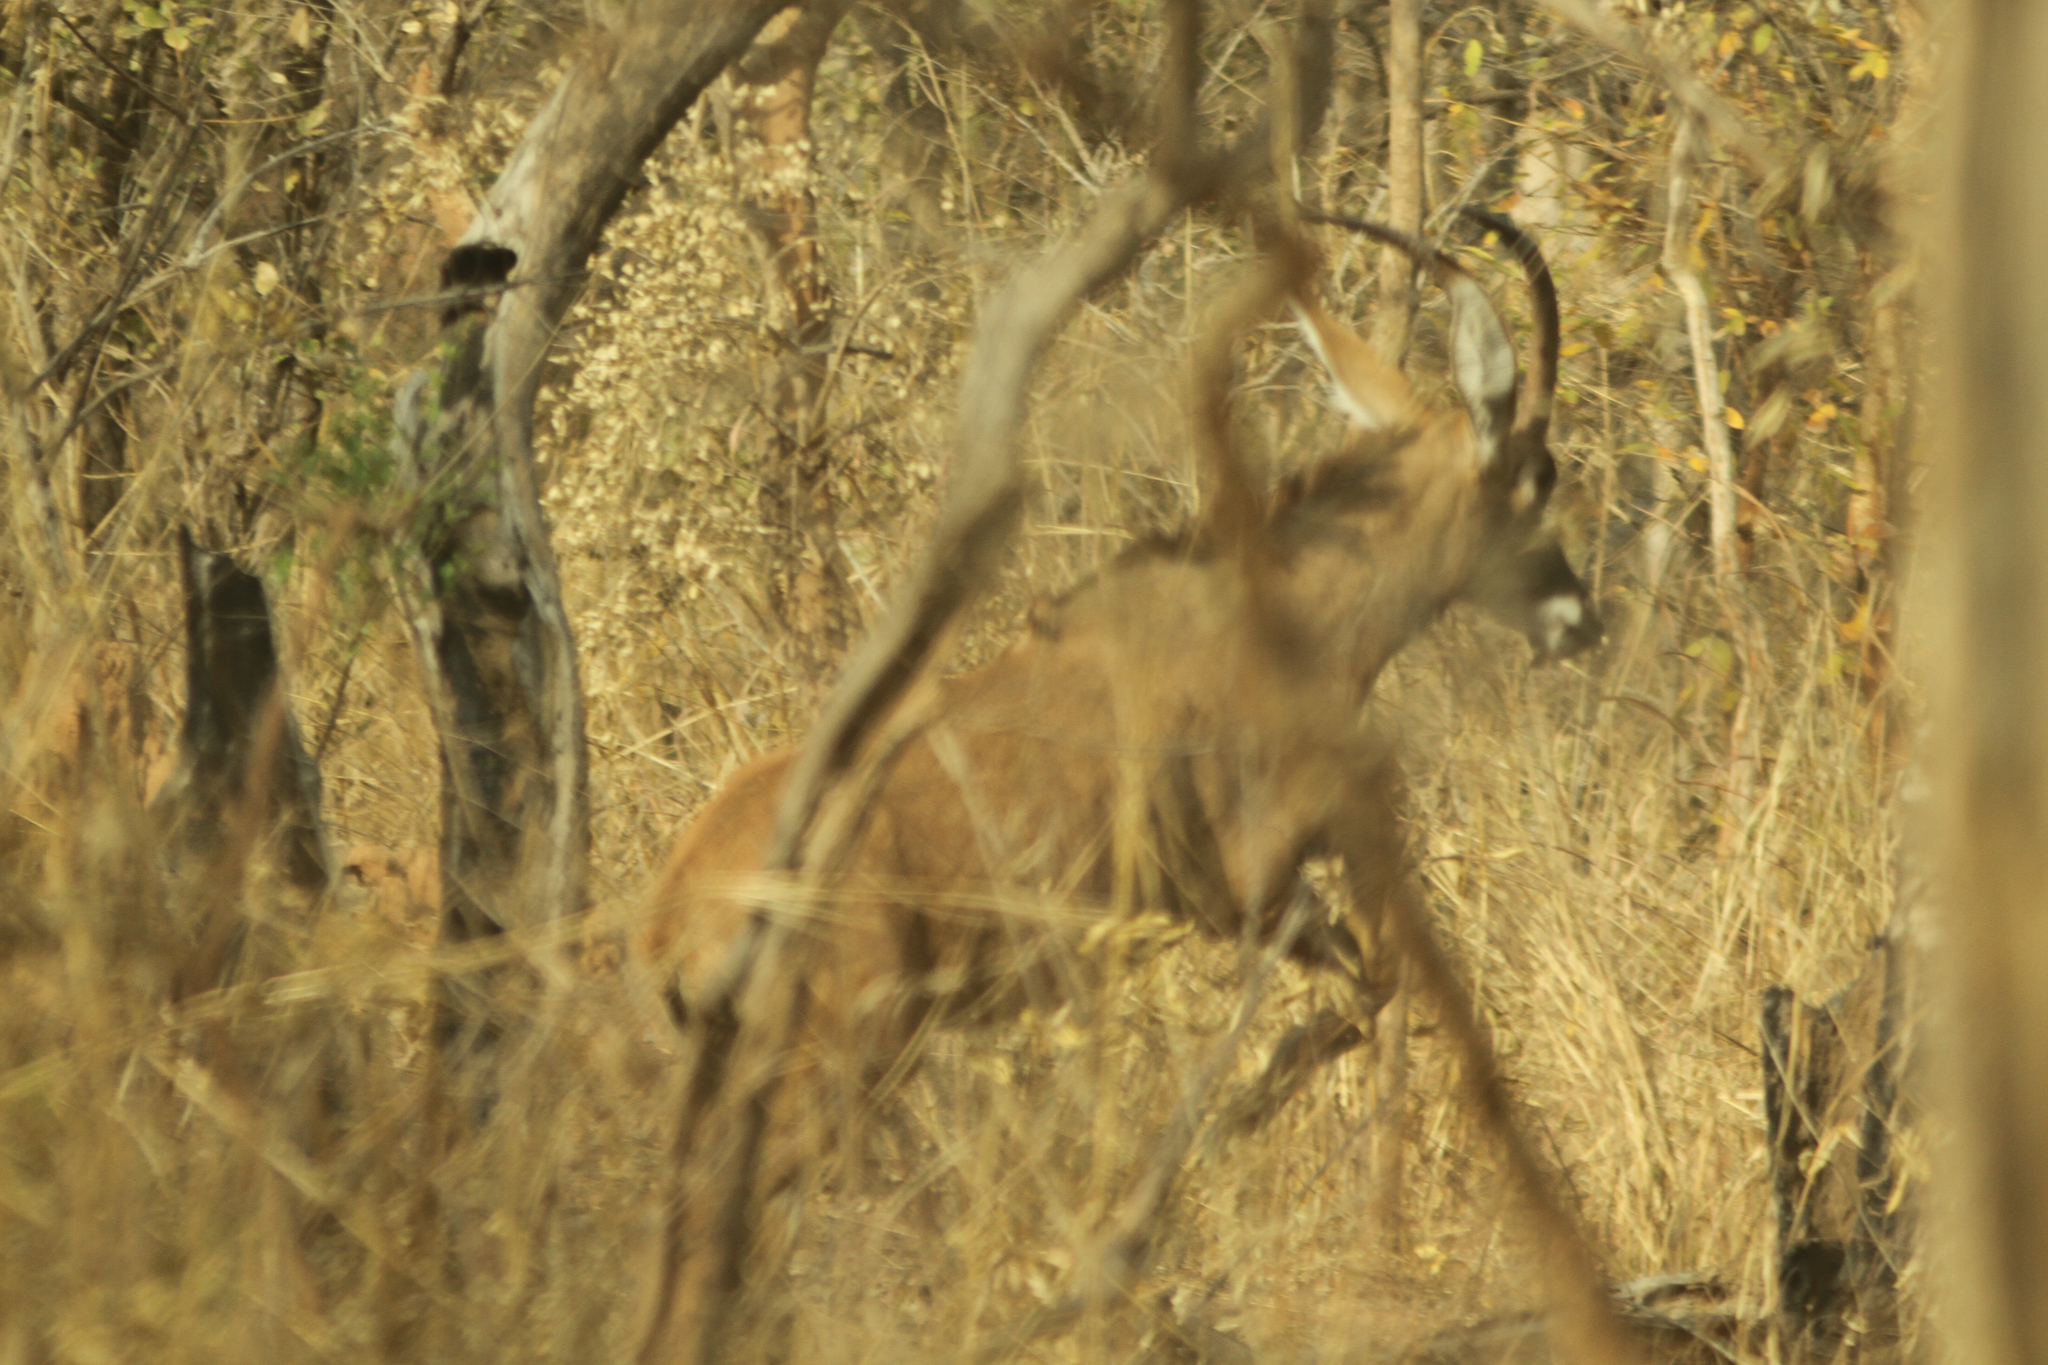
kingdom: Animalia
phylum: Chordata
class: Mammalia
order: Artiodactyla
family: Bovidae
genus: Hippotragus
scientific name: Hippotragus equinus
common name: Roan antelope
